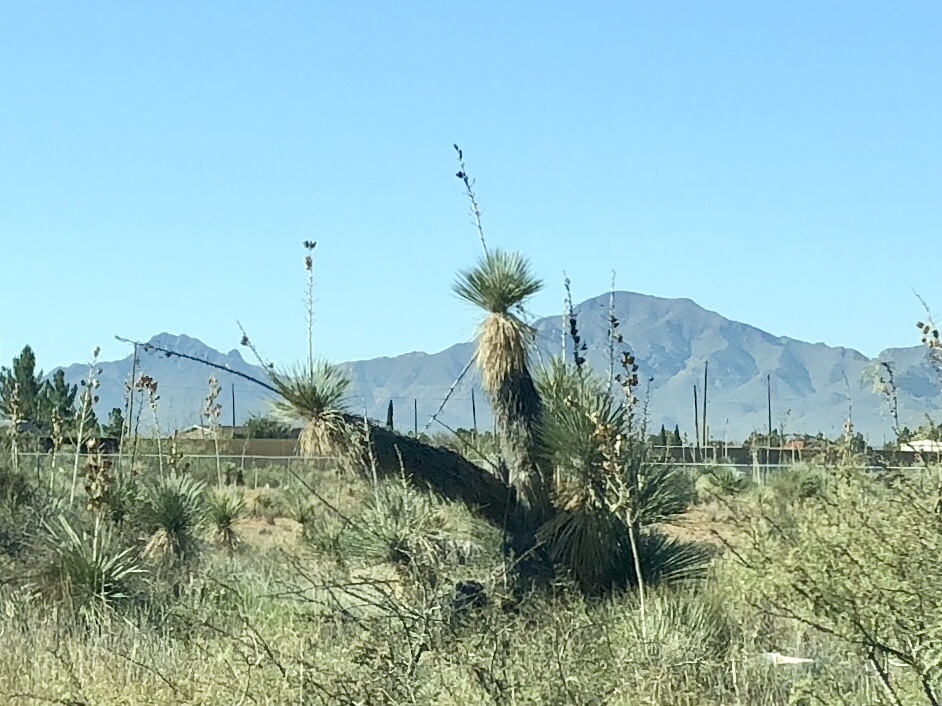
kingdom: Plantae
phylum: Tracheophyta
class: Liliopsida
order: Asparagales
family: Asparagaceae
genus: Yucca
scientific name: Yucca elata
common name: Palmella
